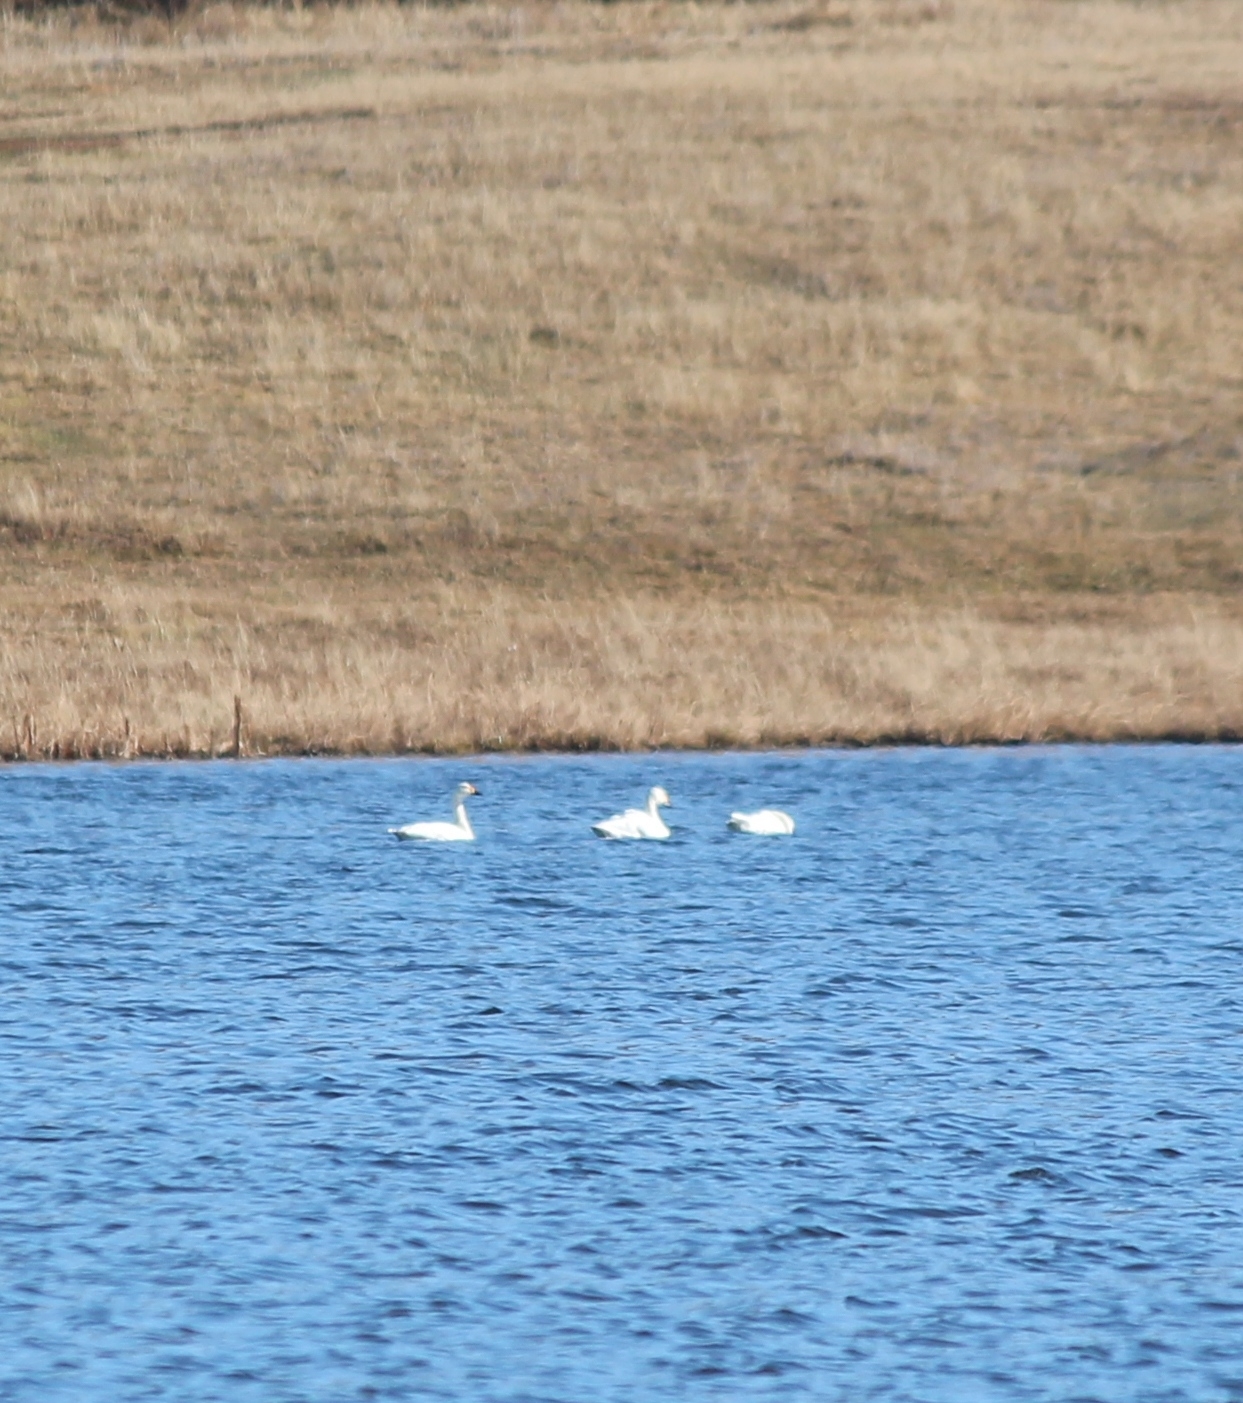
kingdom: Animalia
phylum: Chordata
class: Aves
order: Anseriformes
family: Anatidae
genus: Cygnus
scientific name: Cygnus columbianus
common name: Tundra swan
